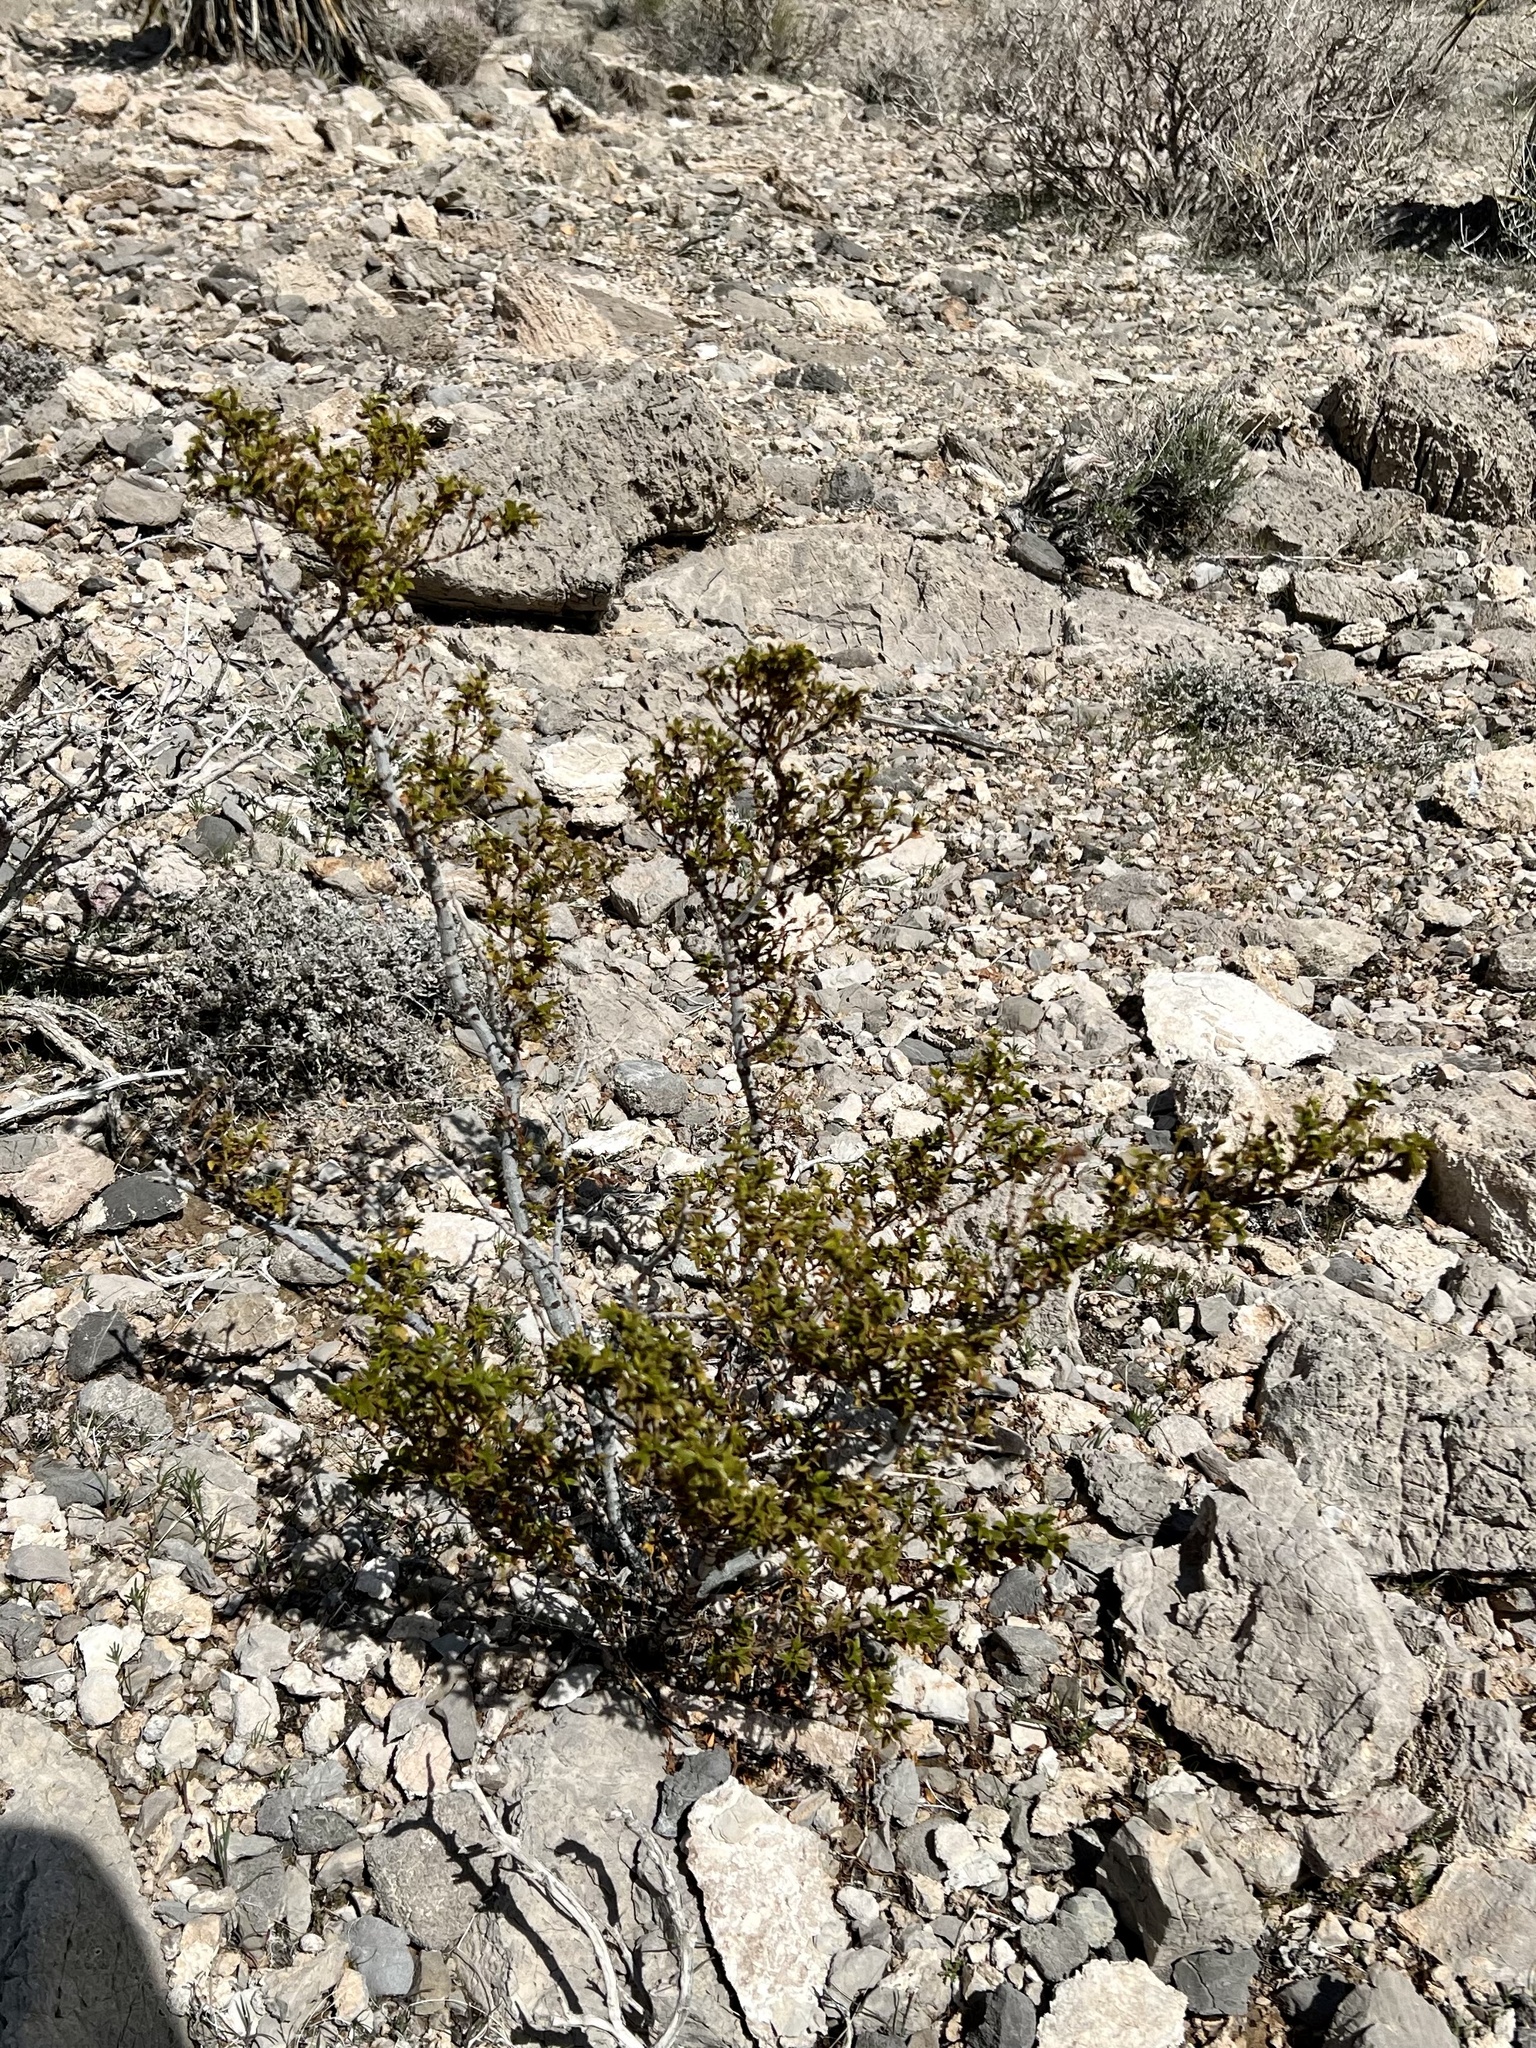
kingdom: Plantae
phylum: Tracheophyta
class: Magnoliopsida
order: Zygophyllales
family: Zygophyllaceae
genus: Larrea
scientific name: Larrea tridentata
